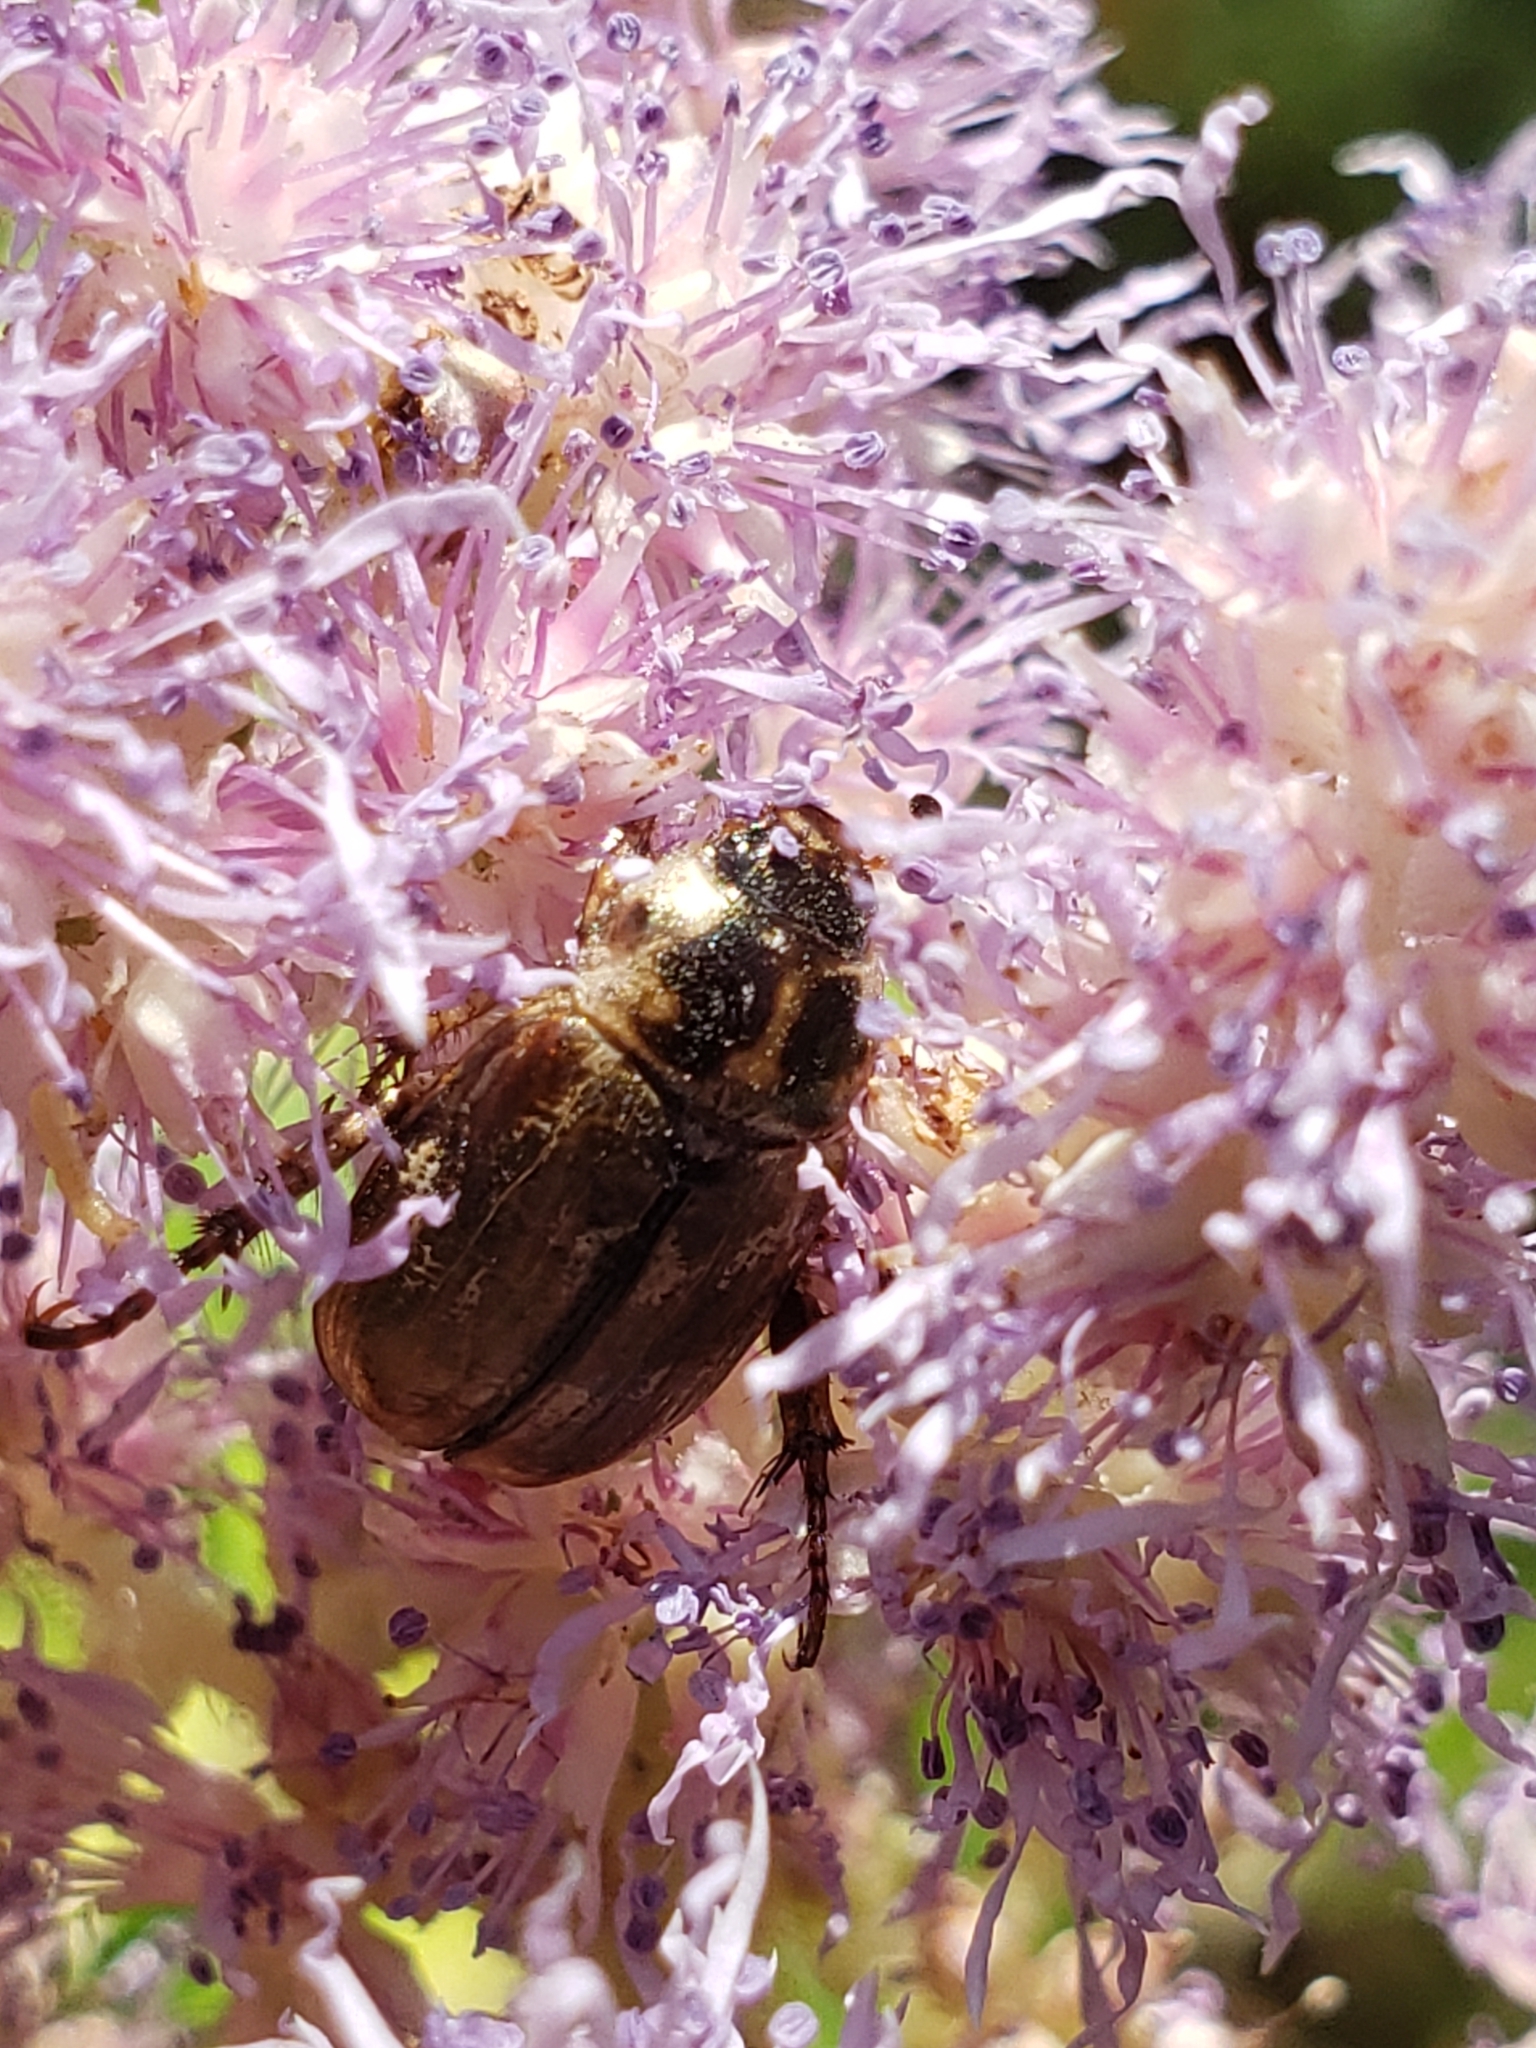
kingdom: Animalia
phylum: Arthropoda
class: Insecta
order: Coleoptera
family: Scarabaeidae
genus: Exomala
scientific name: Exomala orientalis
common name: Oriental beetle
